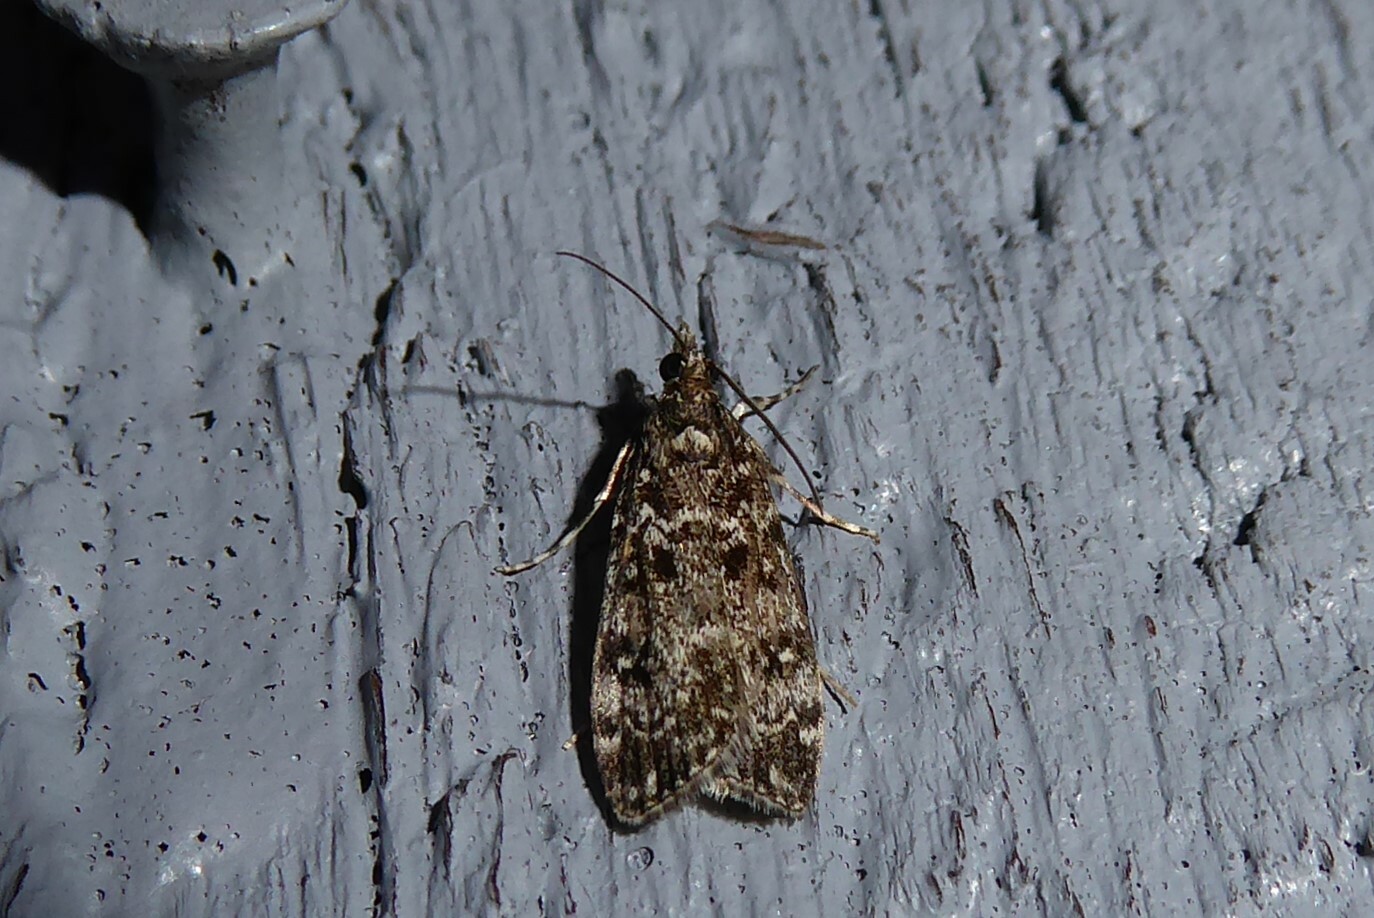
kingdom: Animalia
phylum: Arthropoda
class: Insecta
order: Lepidoptera
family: Crambidae
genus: Eudonia
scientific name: Eudonia philerga
